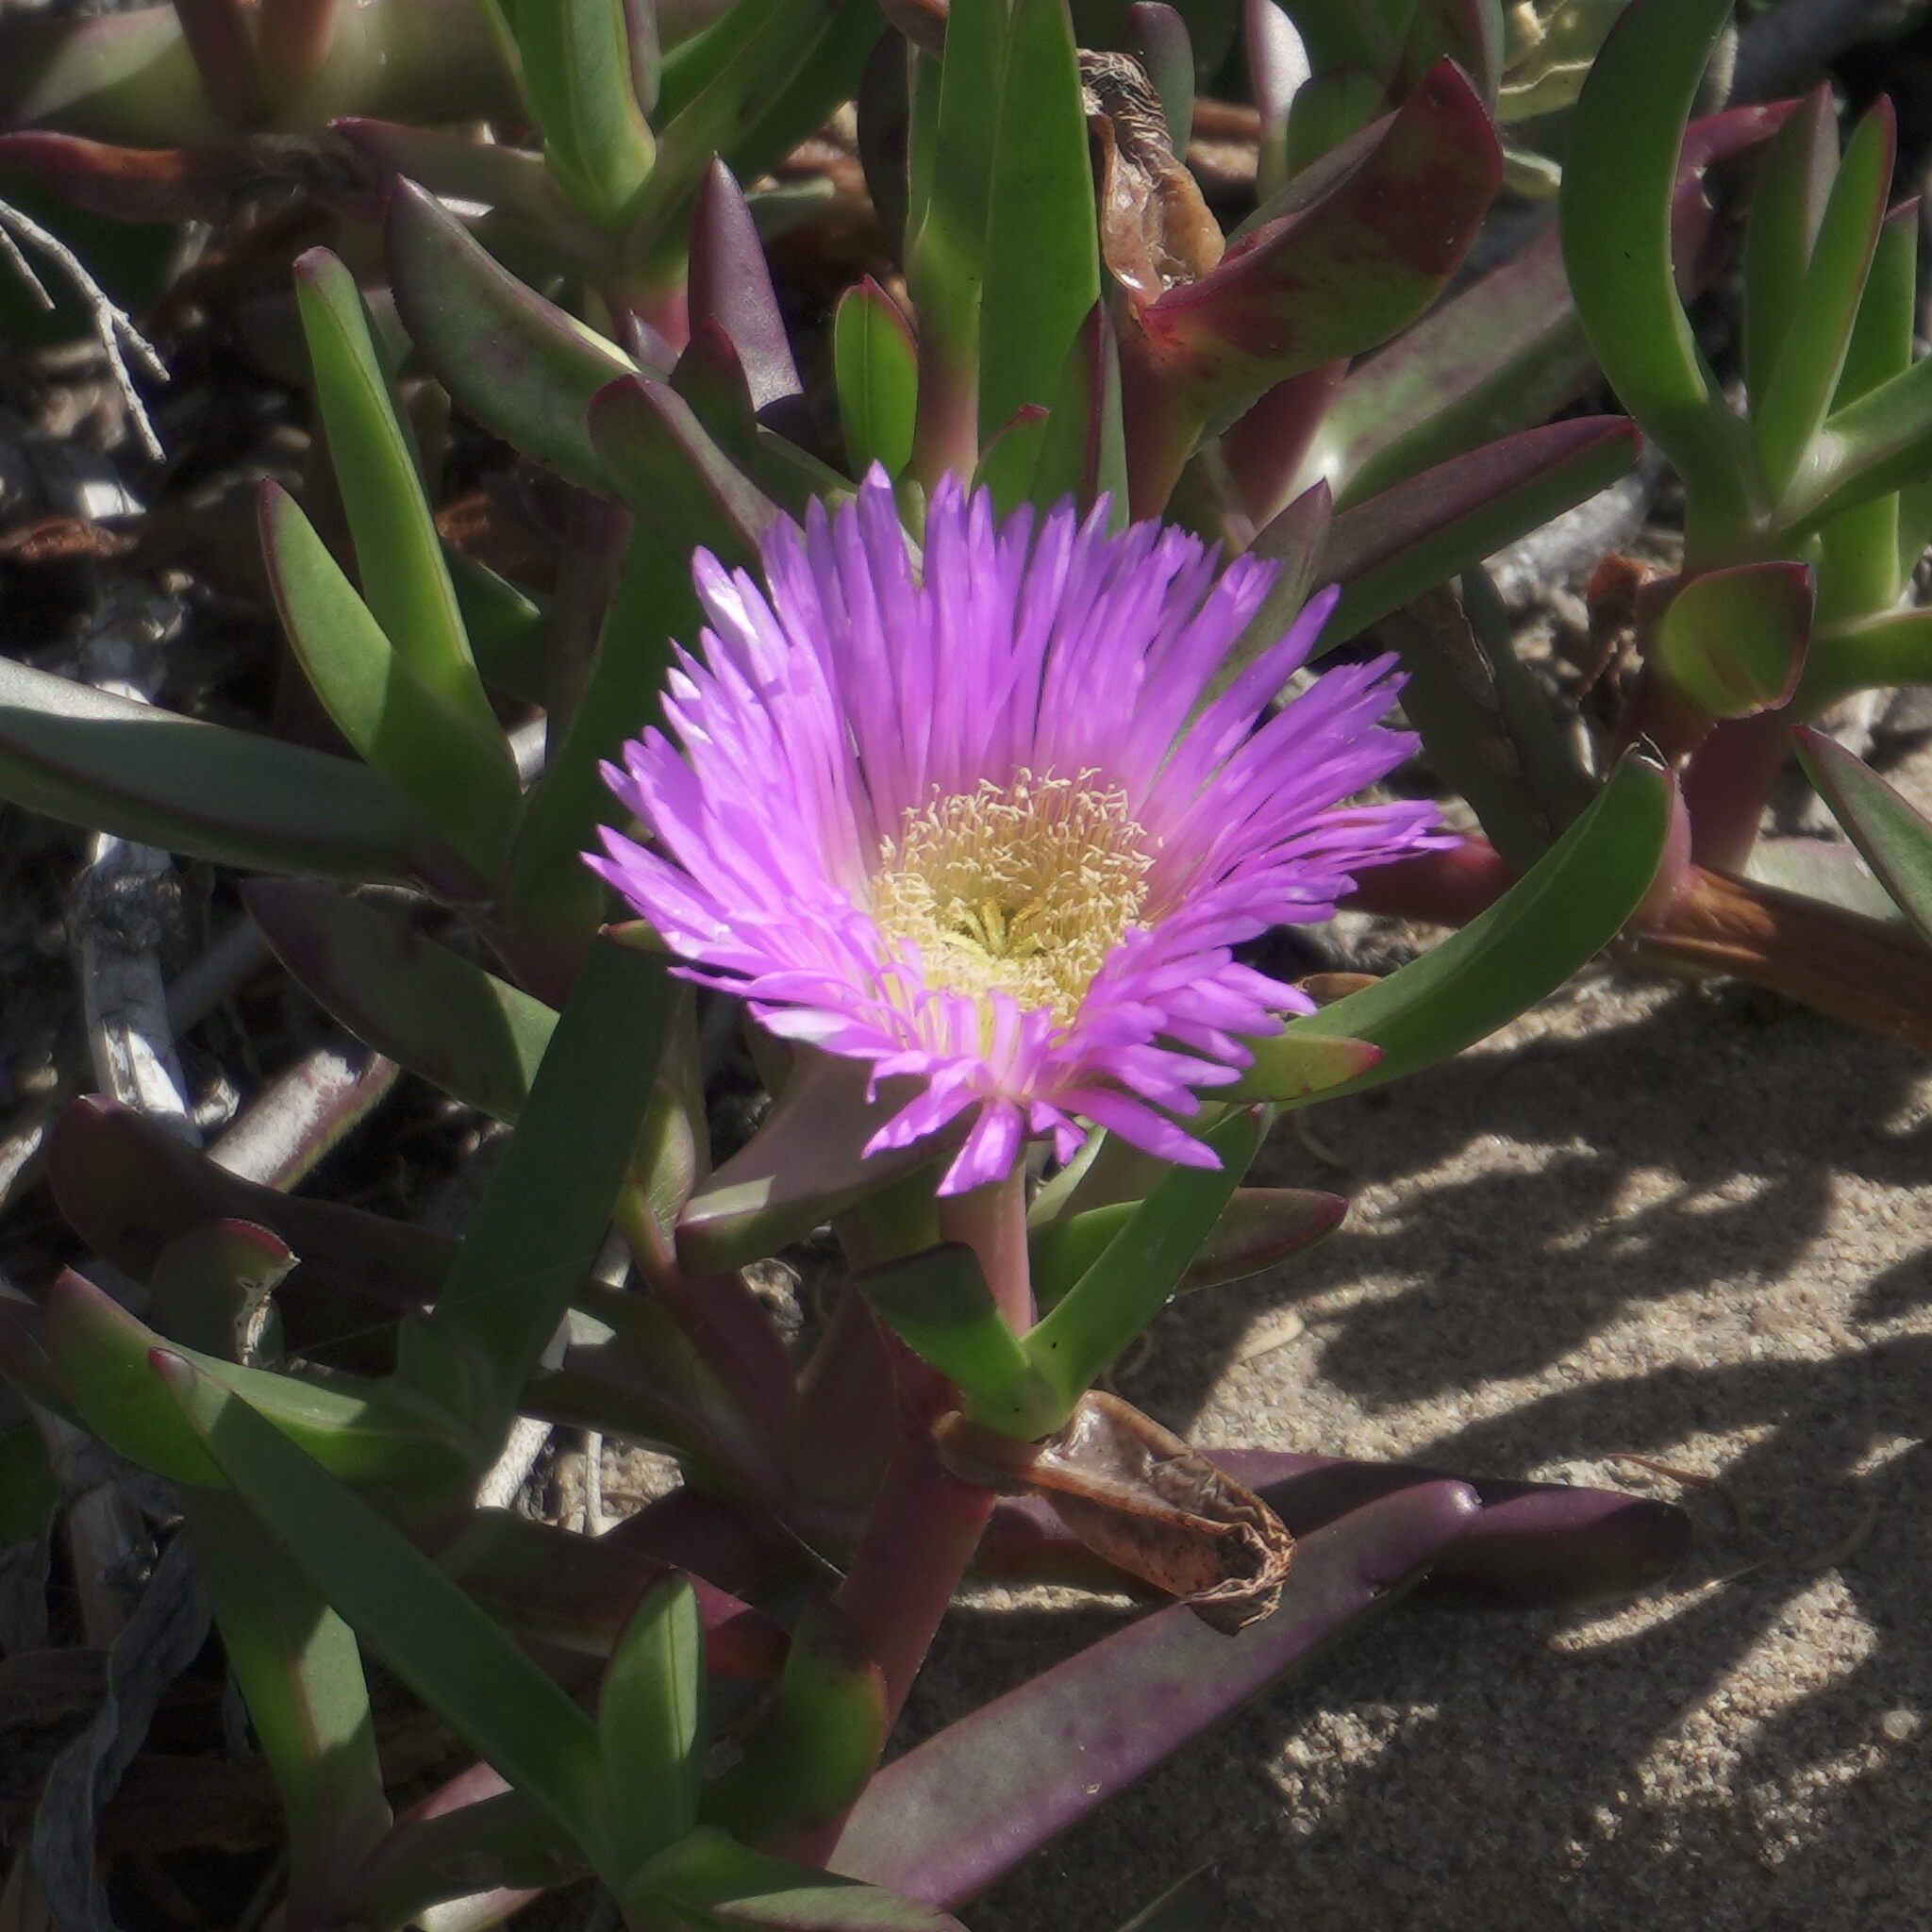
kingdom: Plantae
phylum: Tracheophyta
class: Magnoliopsida
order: Caryophyllales
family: Aizoaceae
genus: Carpobrotus
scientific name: Carpobrotus glaucescens
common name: Angular sea-fig
